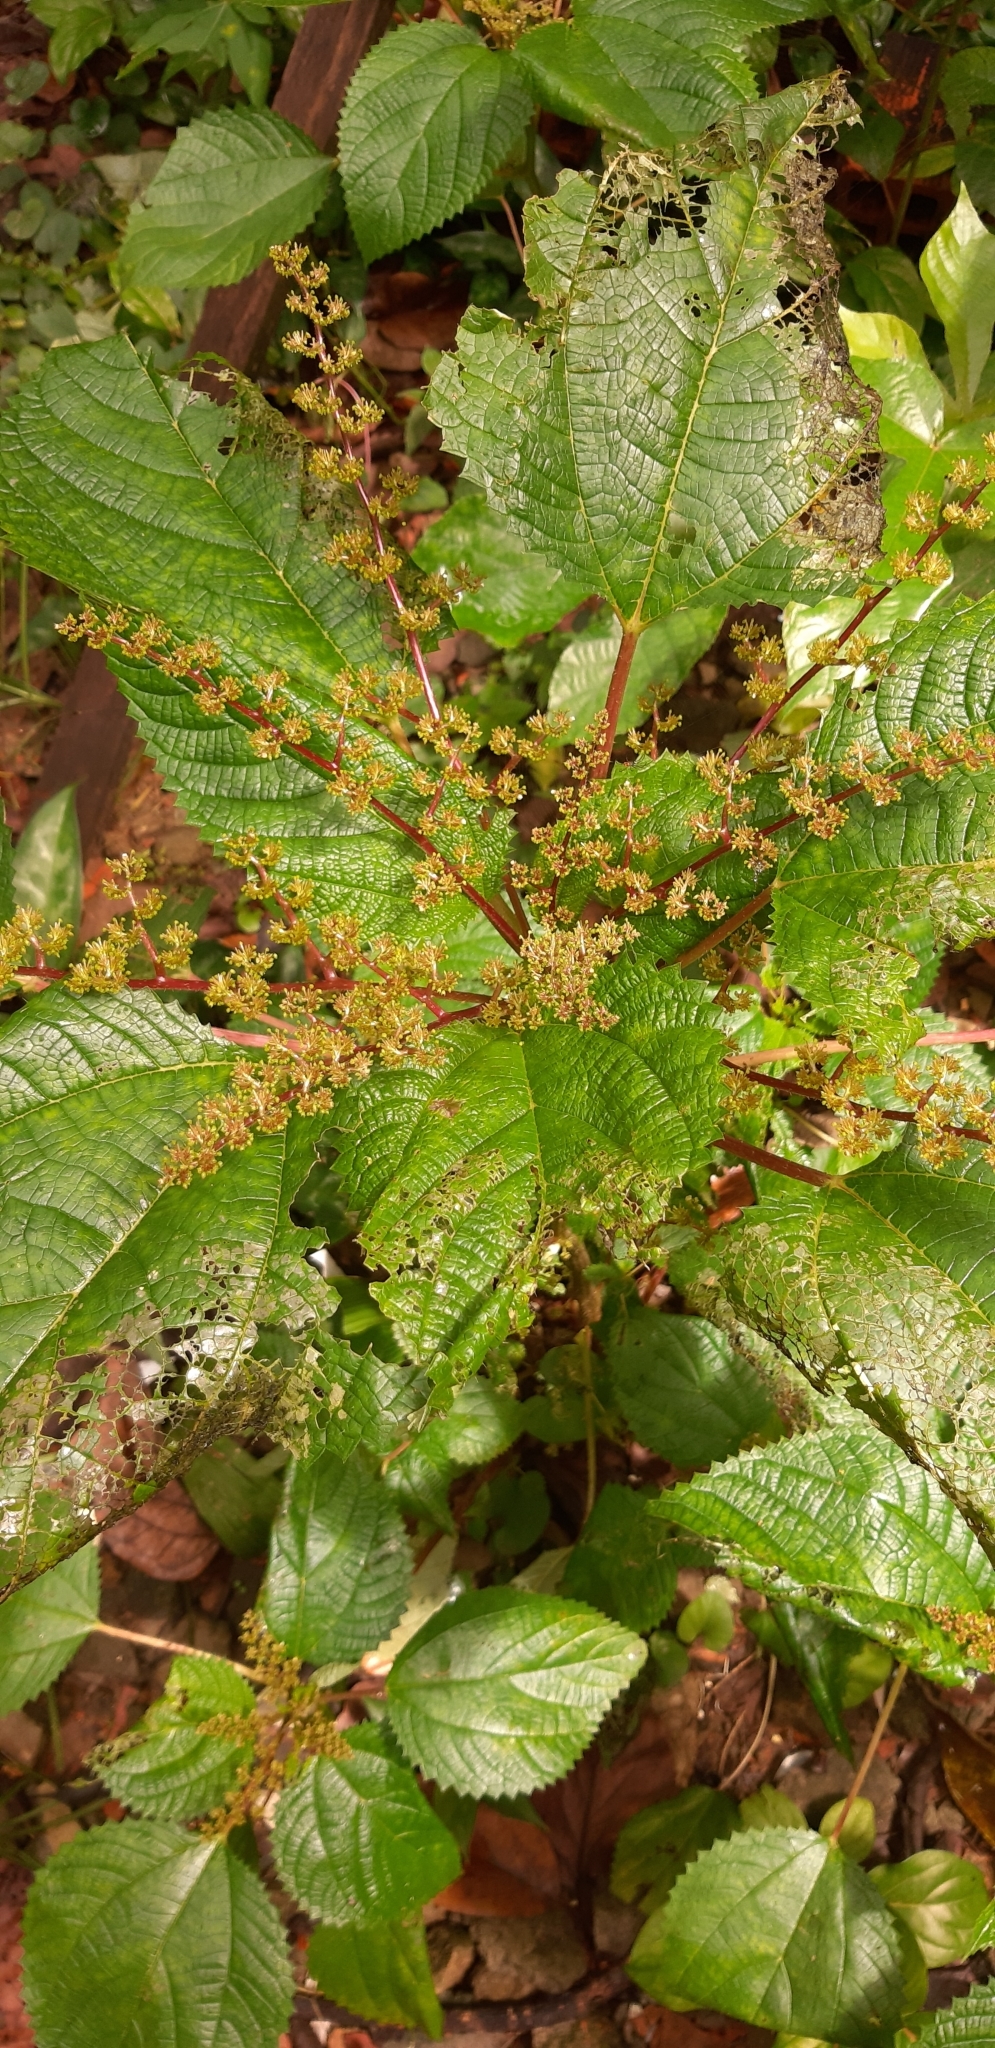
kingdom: Plantae
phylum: Tracheophyta
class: Magnoliopsida
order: Rosales
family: Urticaceae
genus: Laportea
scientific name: Laportea aestuans
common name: West indian woodnettle
